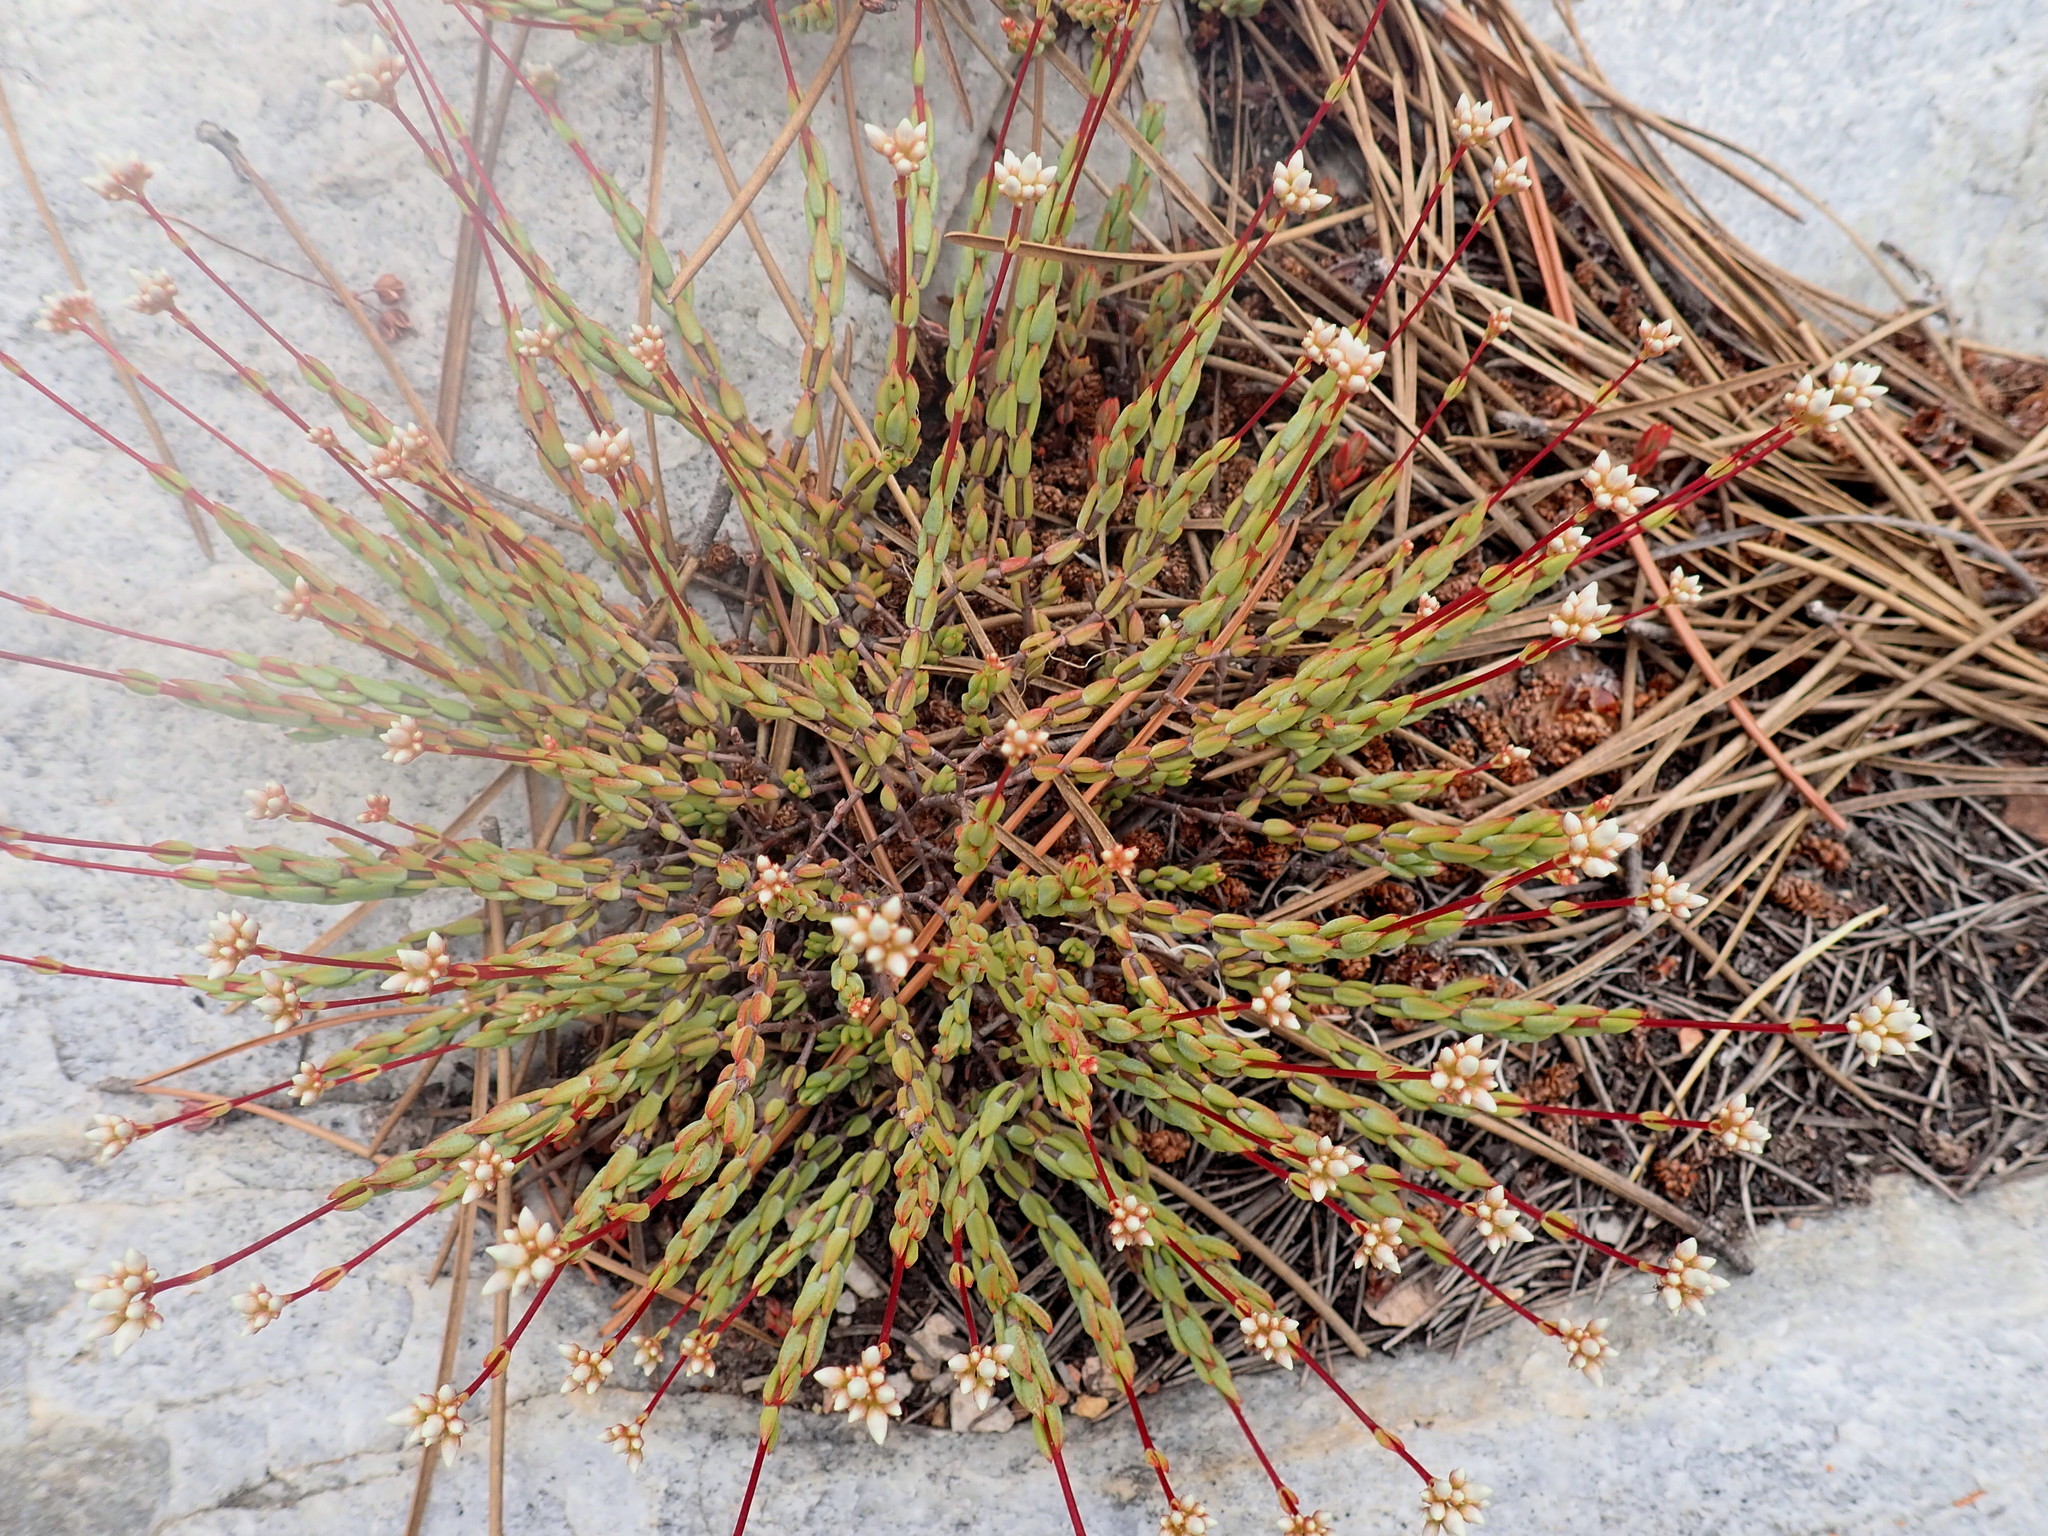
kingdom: Plantae
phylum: Tracheophyta
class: Magnoliopsida
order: Saxifragales
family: Crassulaceae
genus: Crassula
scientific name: Crassula biplanata
